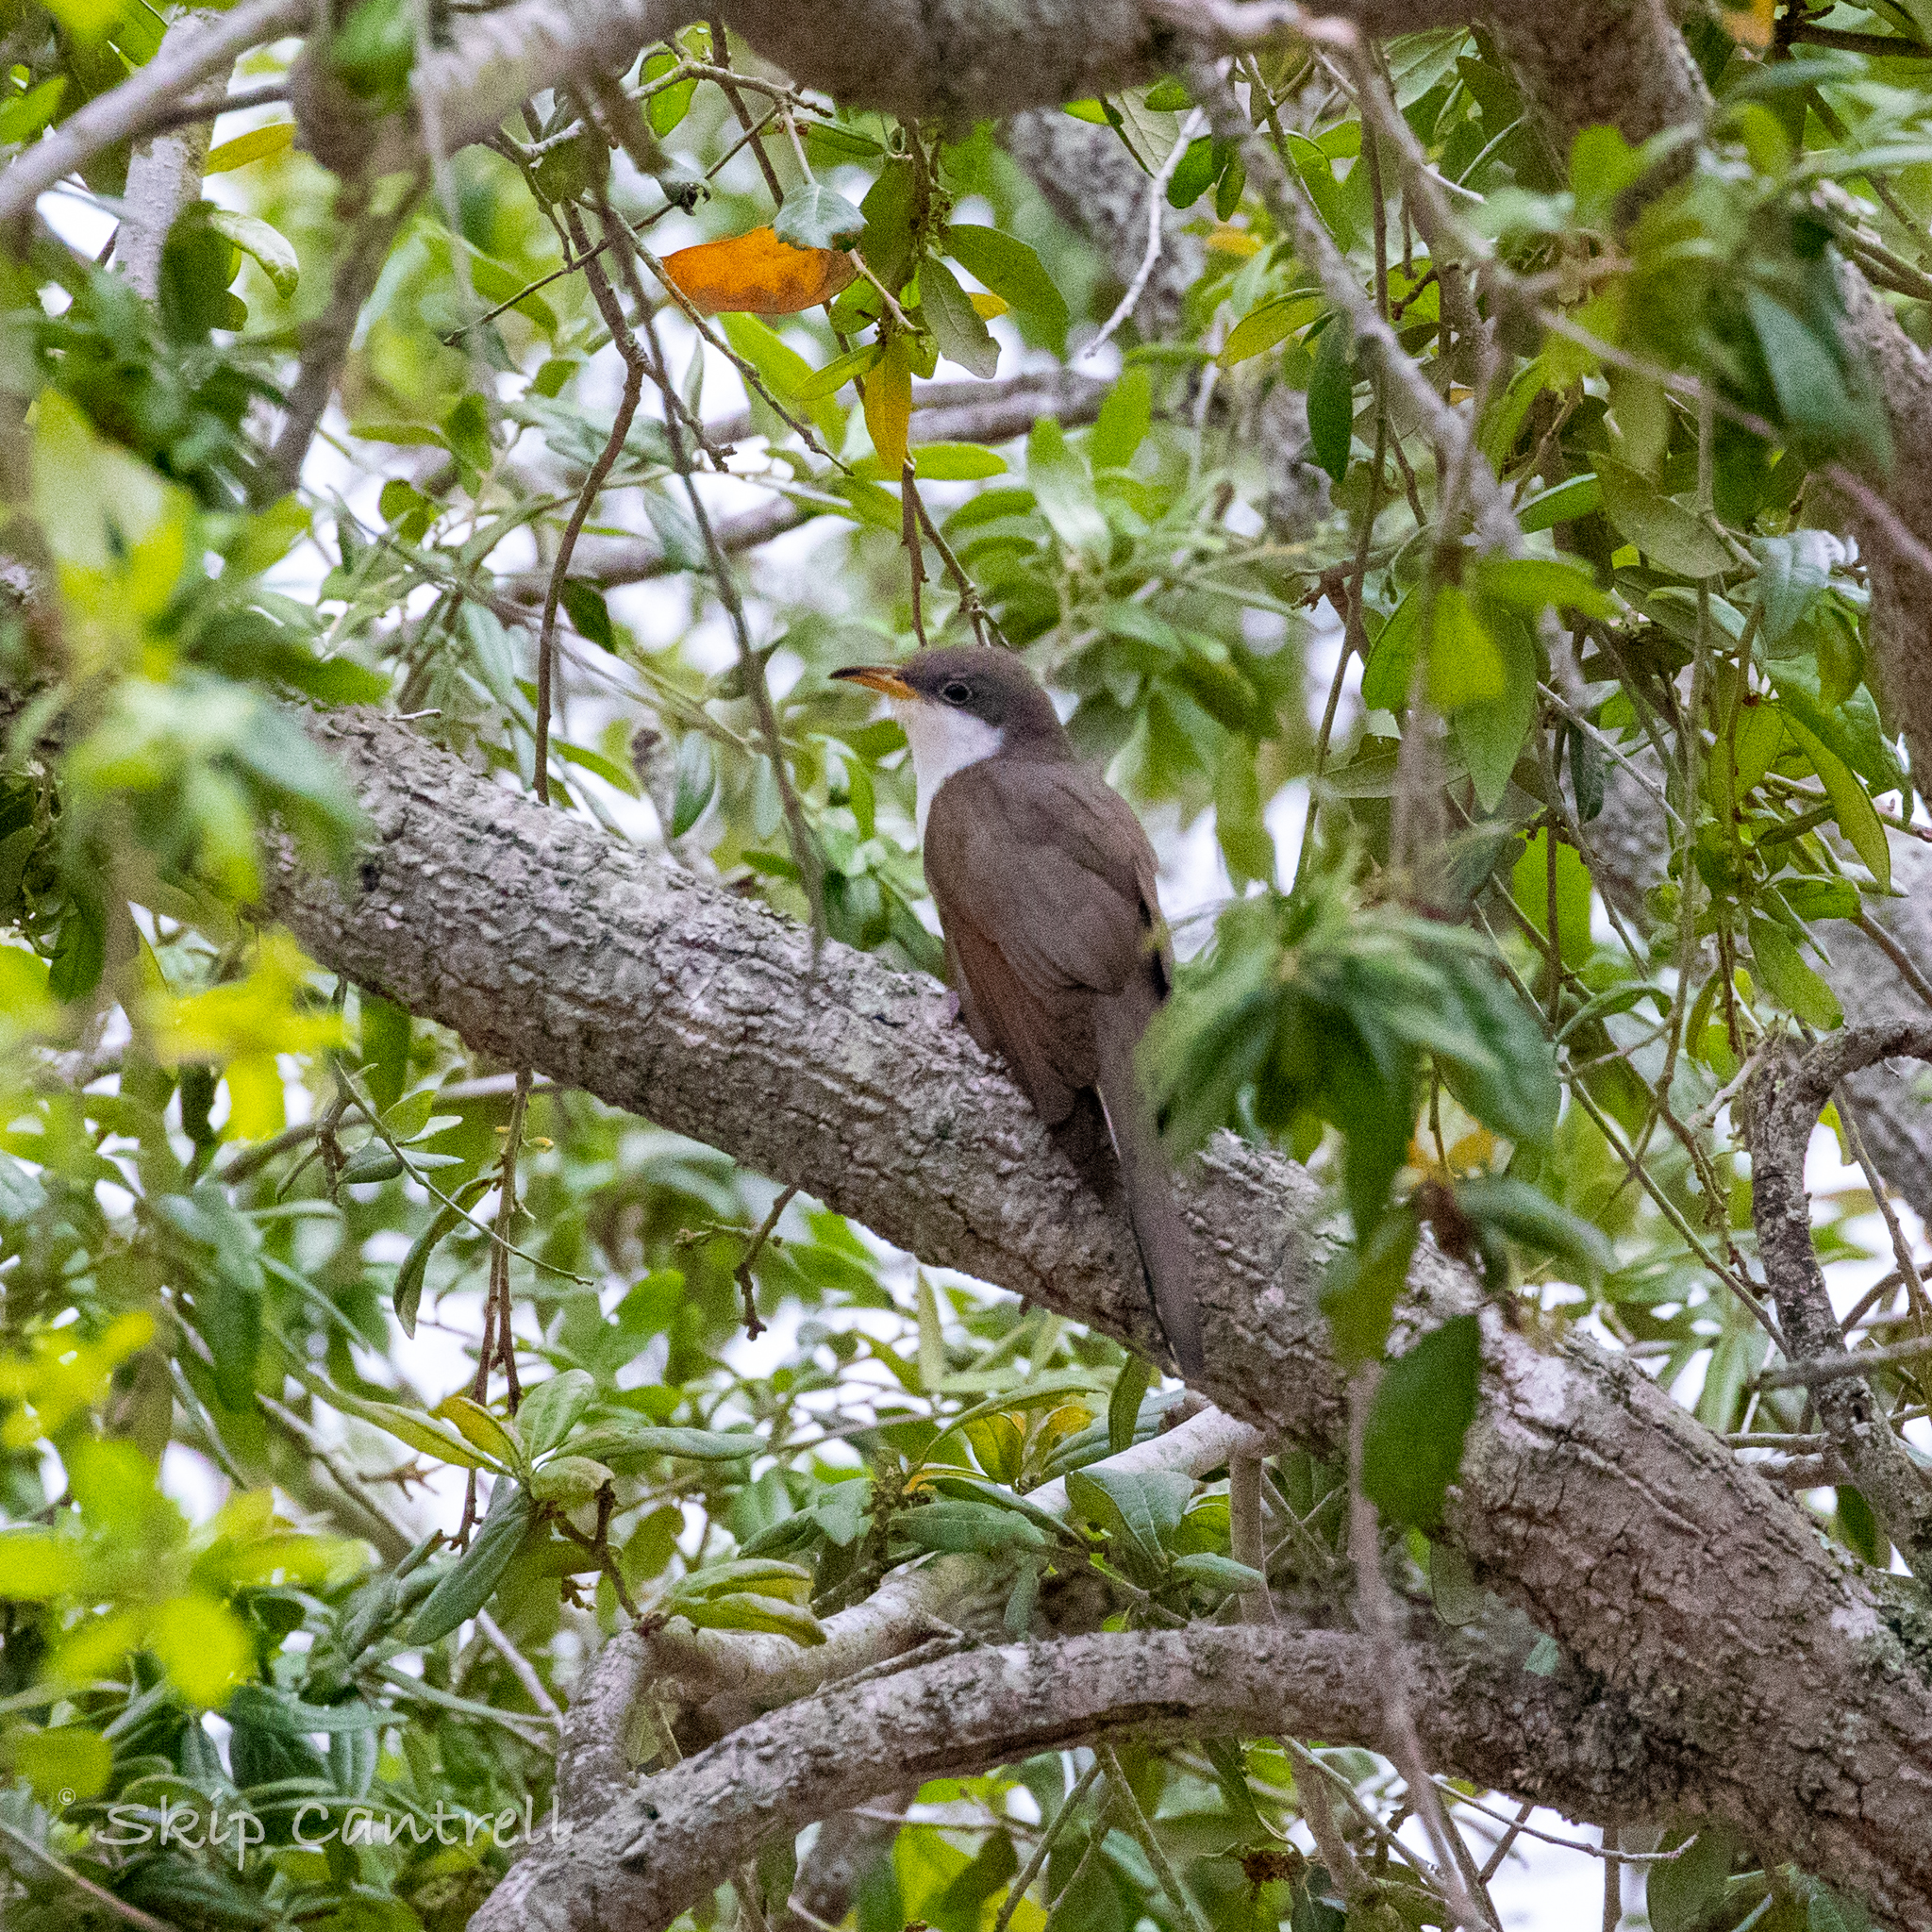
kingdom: Animalia
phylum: Chordata
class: Aves
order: Cuculiformes
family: Cuculidae
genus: Coccyzus
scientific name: Coccyzus americanus
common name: Yellow-billed cuckoo
